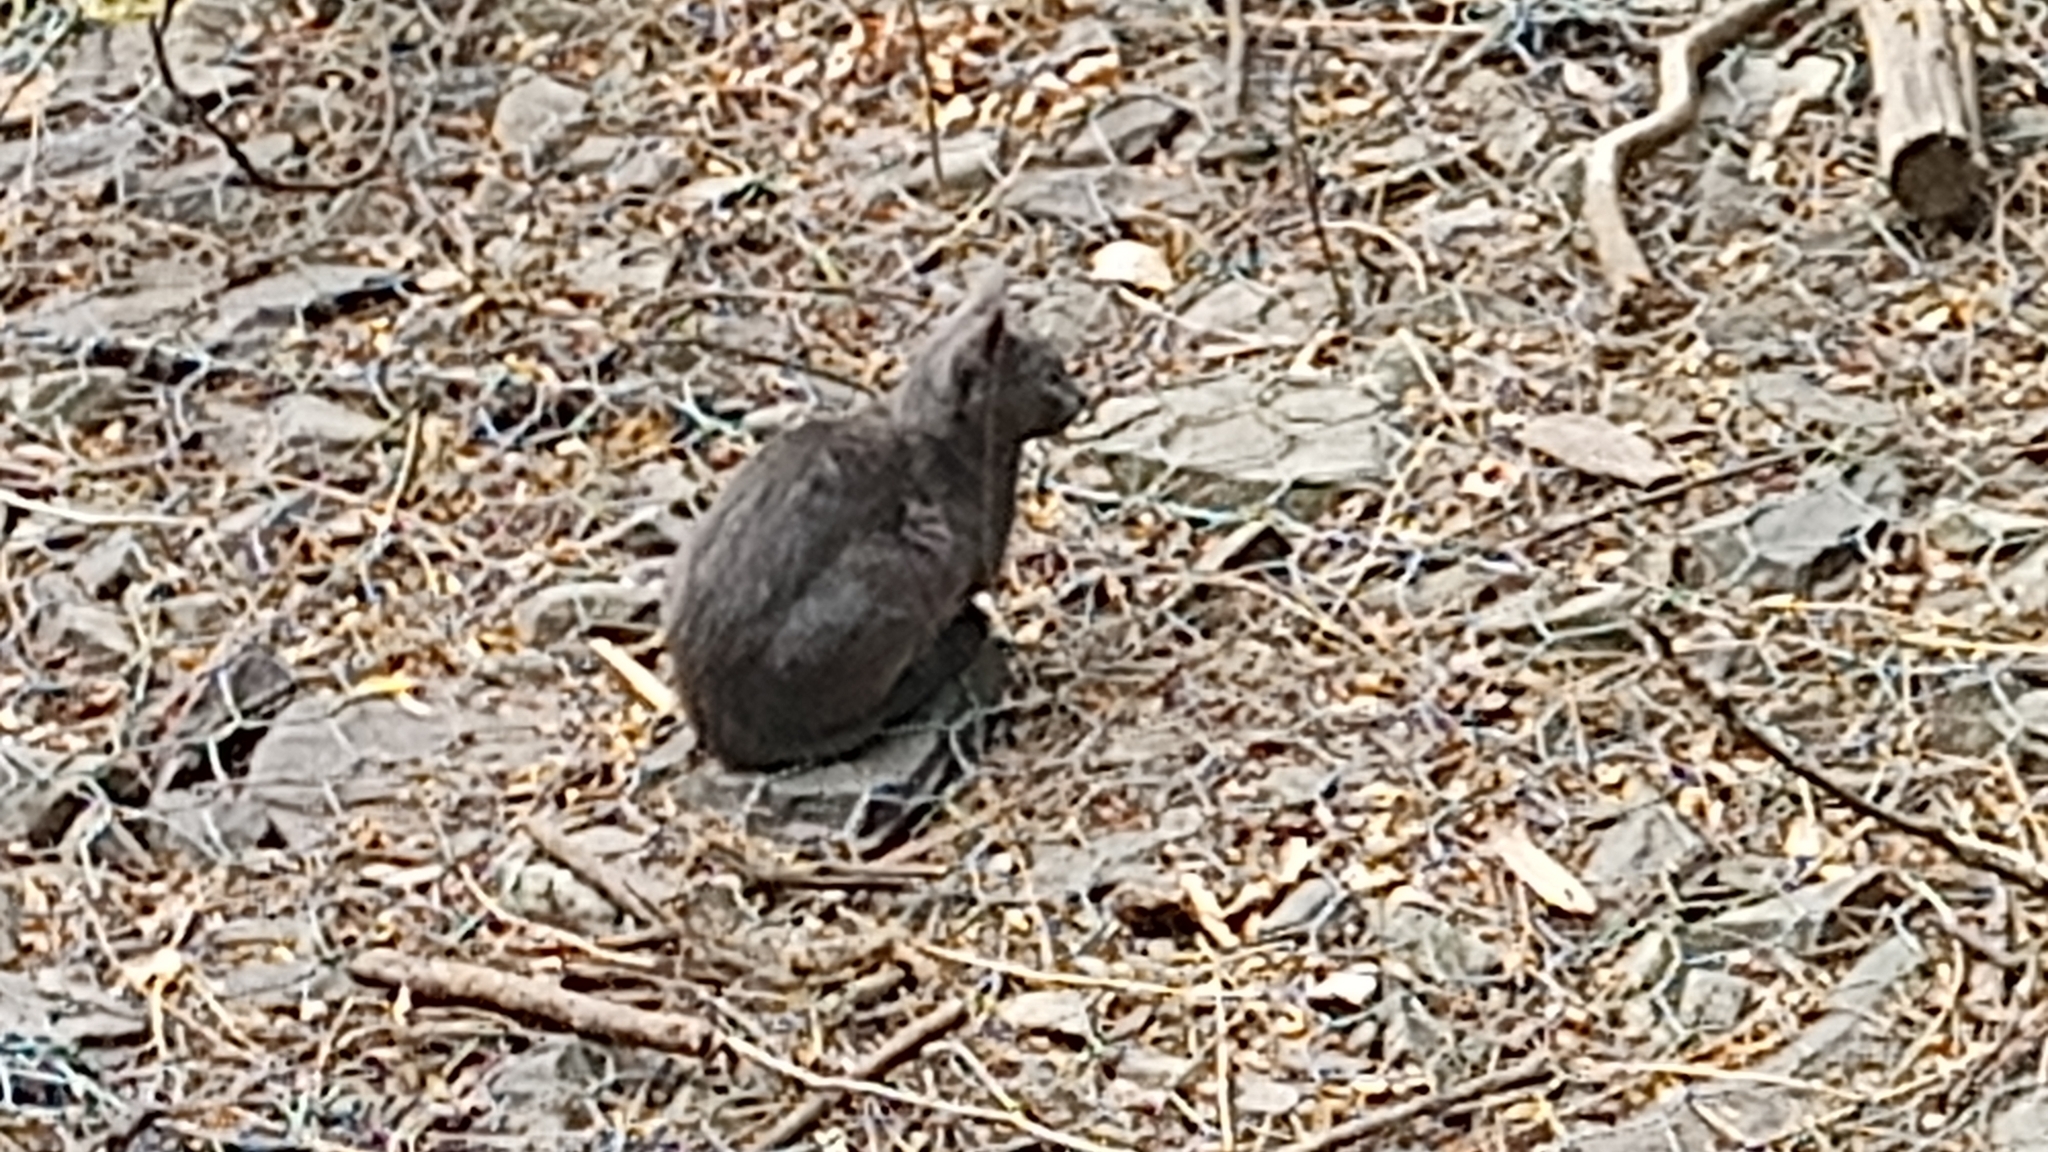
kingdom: Animalia
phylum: Chordata
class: Mammalia
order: Carnivora
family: Felidae
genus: Felis
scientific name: Felis catus
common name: Domestic cat
